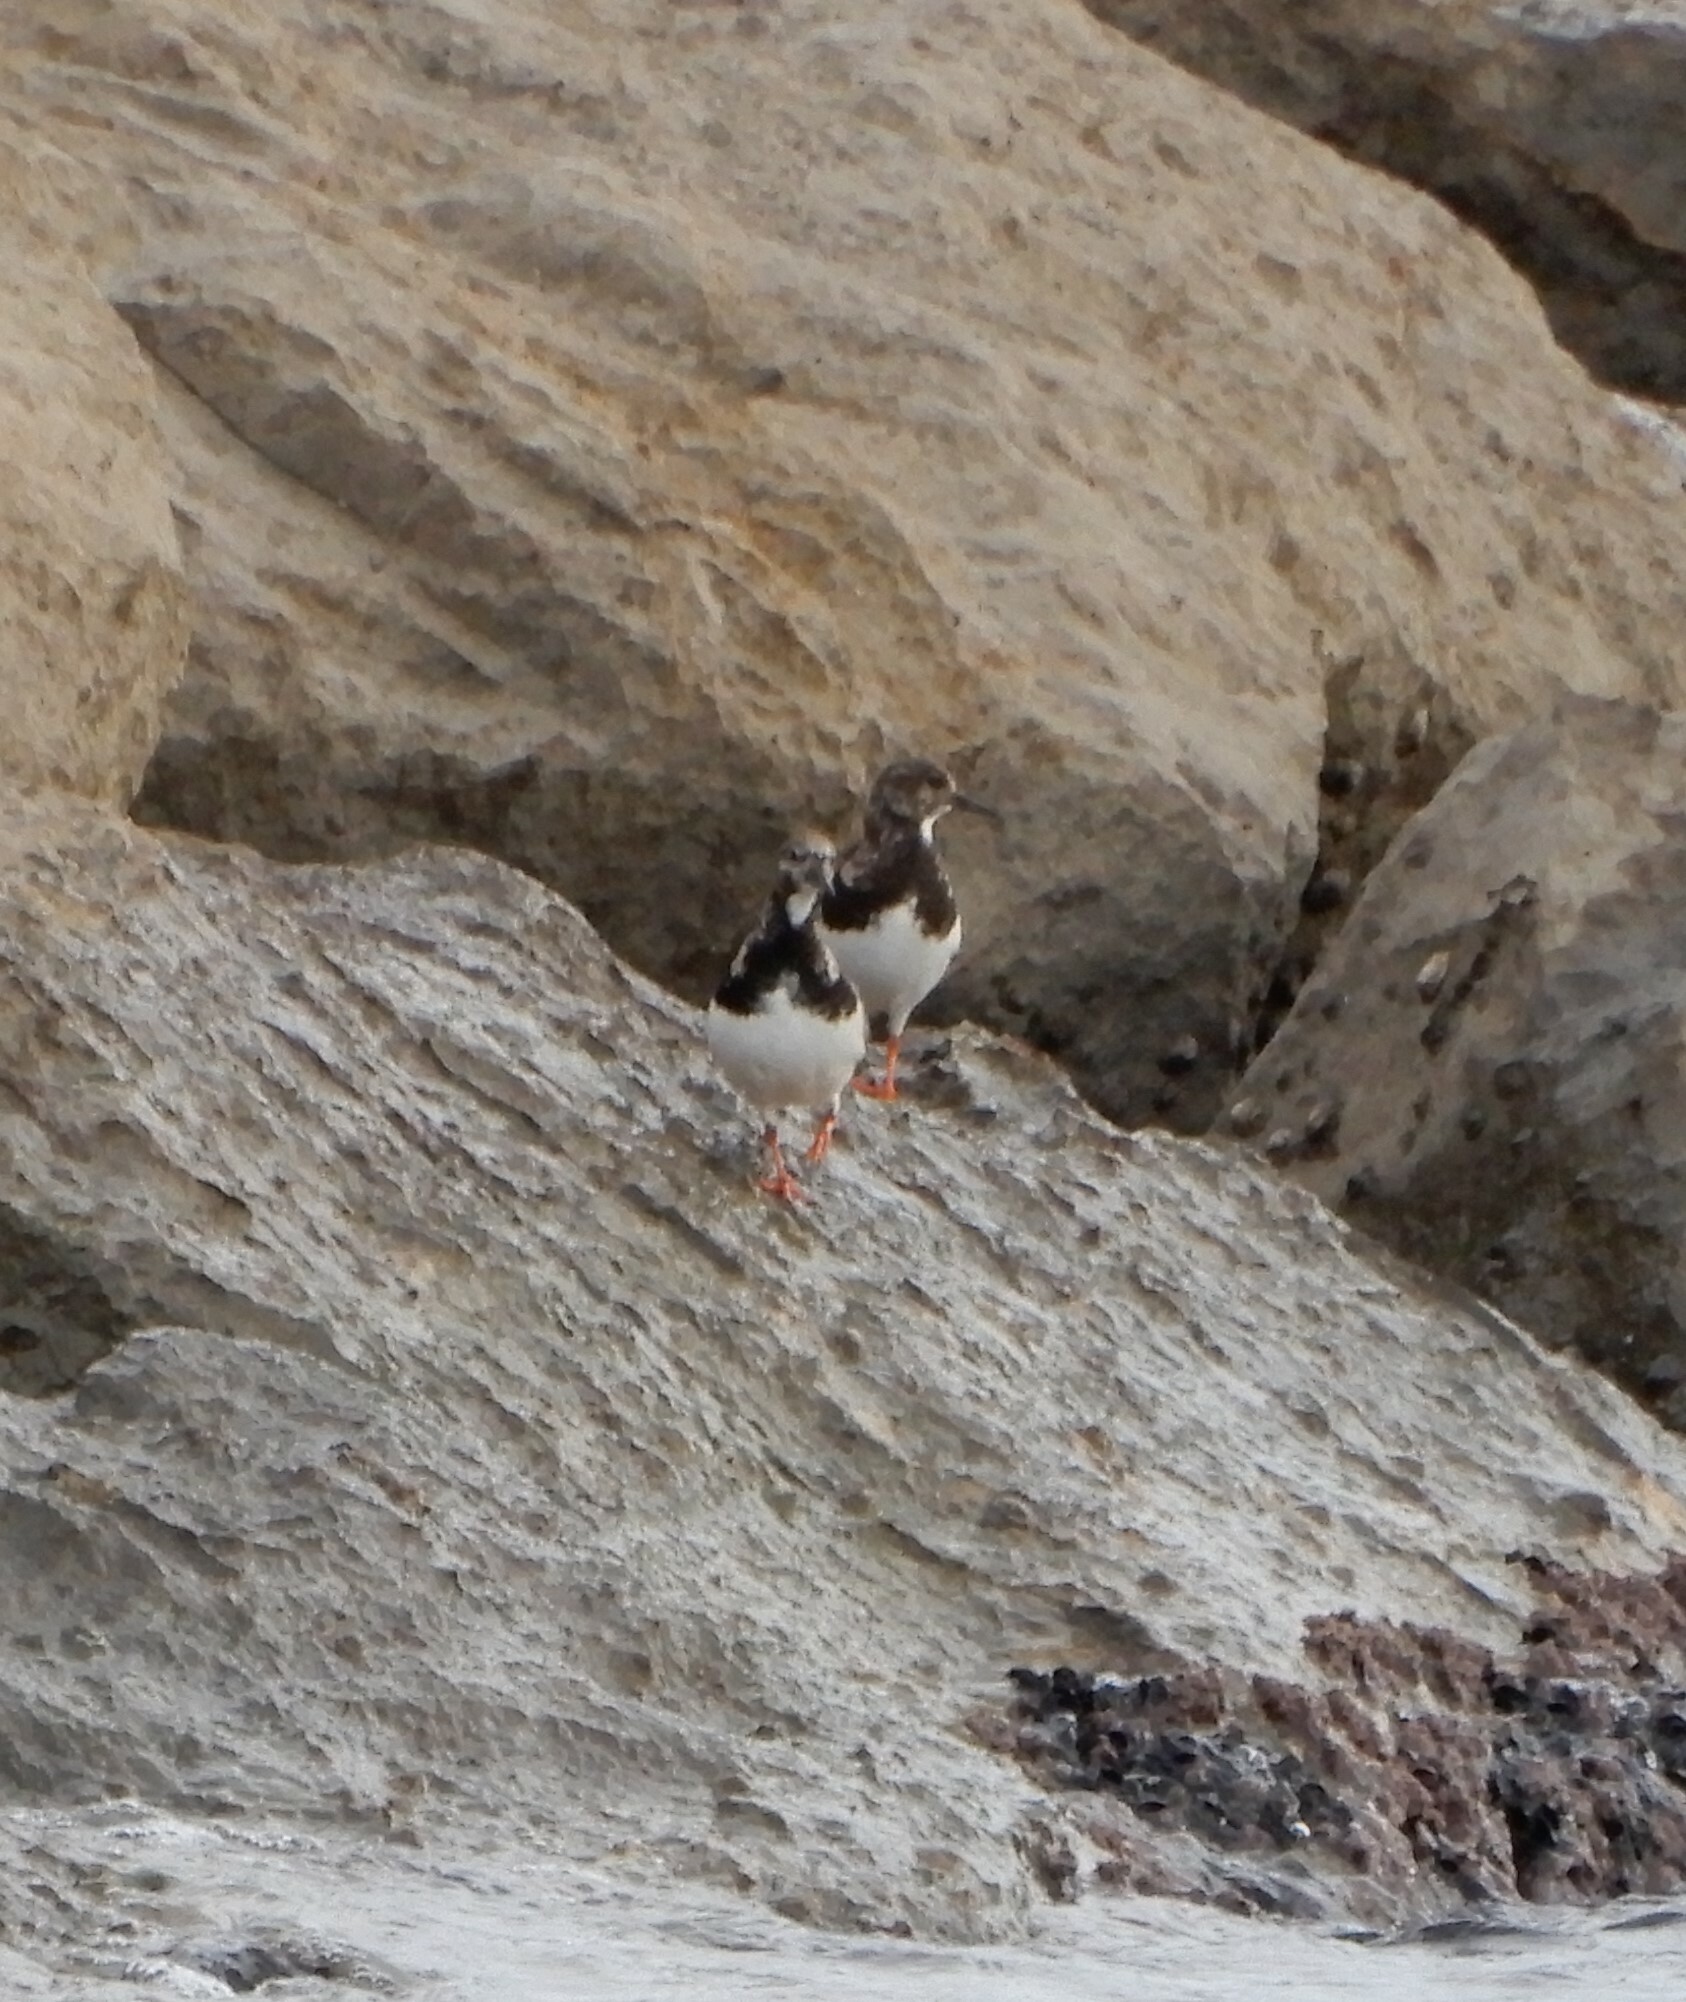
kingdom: Animalia
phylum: Chordata
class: Aves
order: Charadriiformes
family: Scolopacidae
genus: Arenaria
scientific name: Arenaria interpres
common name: Ruddy turnstone
